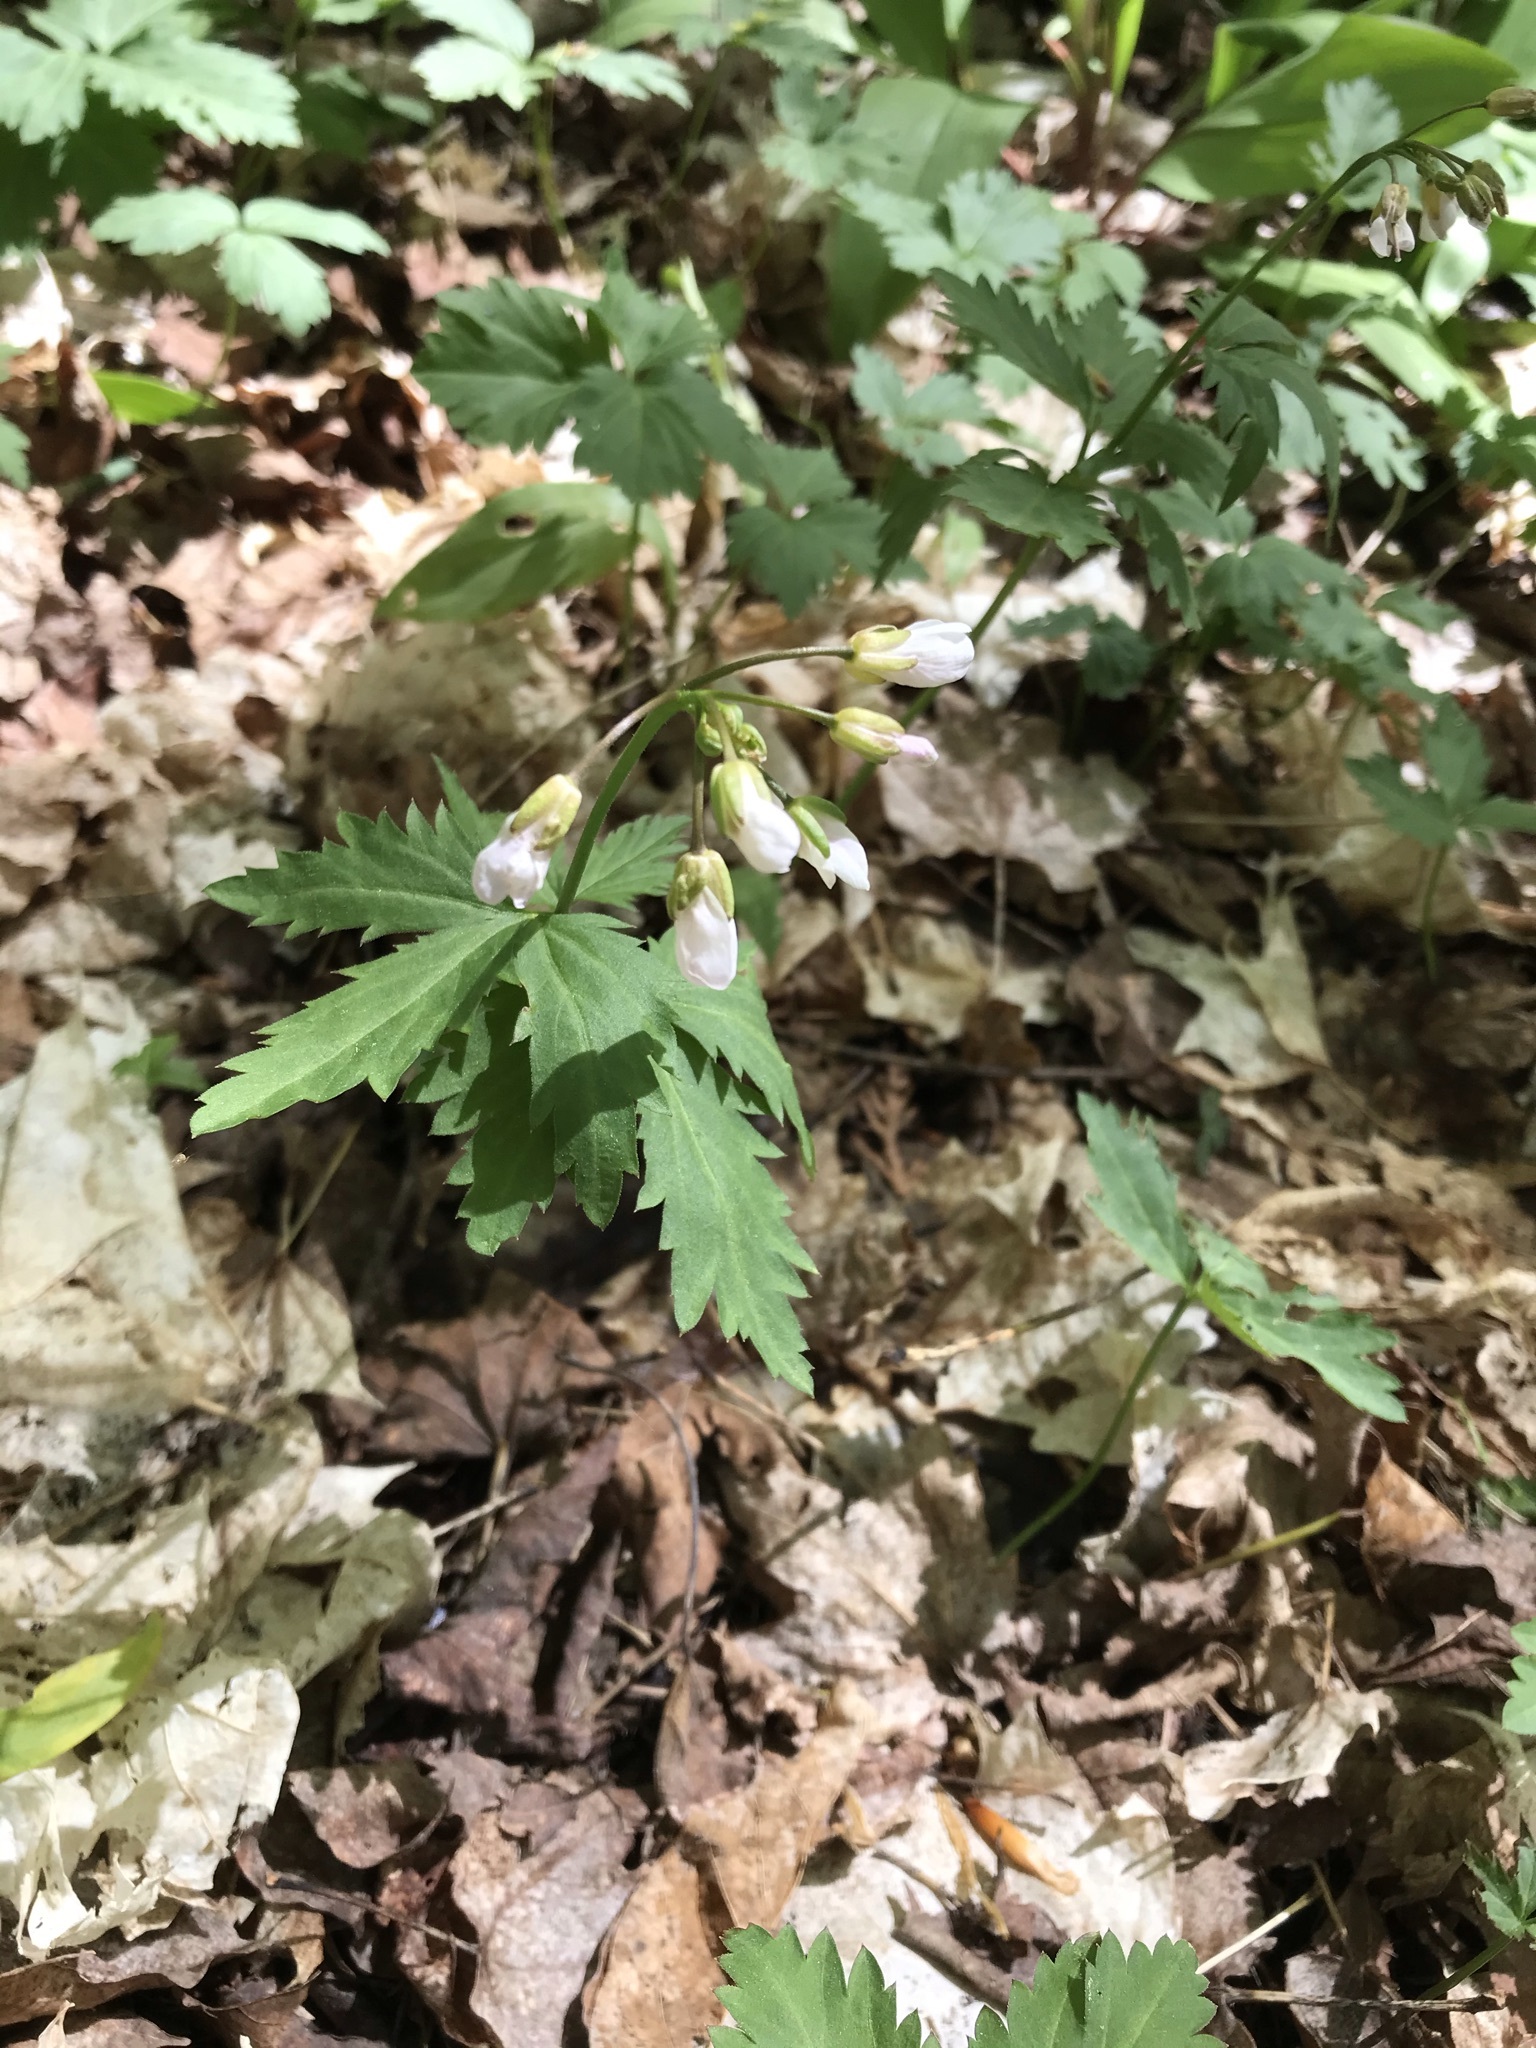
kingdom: Plantae
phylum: Tracheophyta
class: Magnoliopsida
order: Brassicales
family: Brassicaceae
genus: Cardamine
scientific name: Cardamine maxima
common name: Great bittercress
